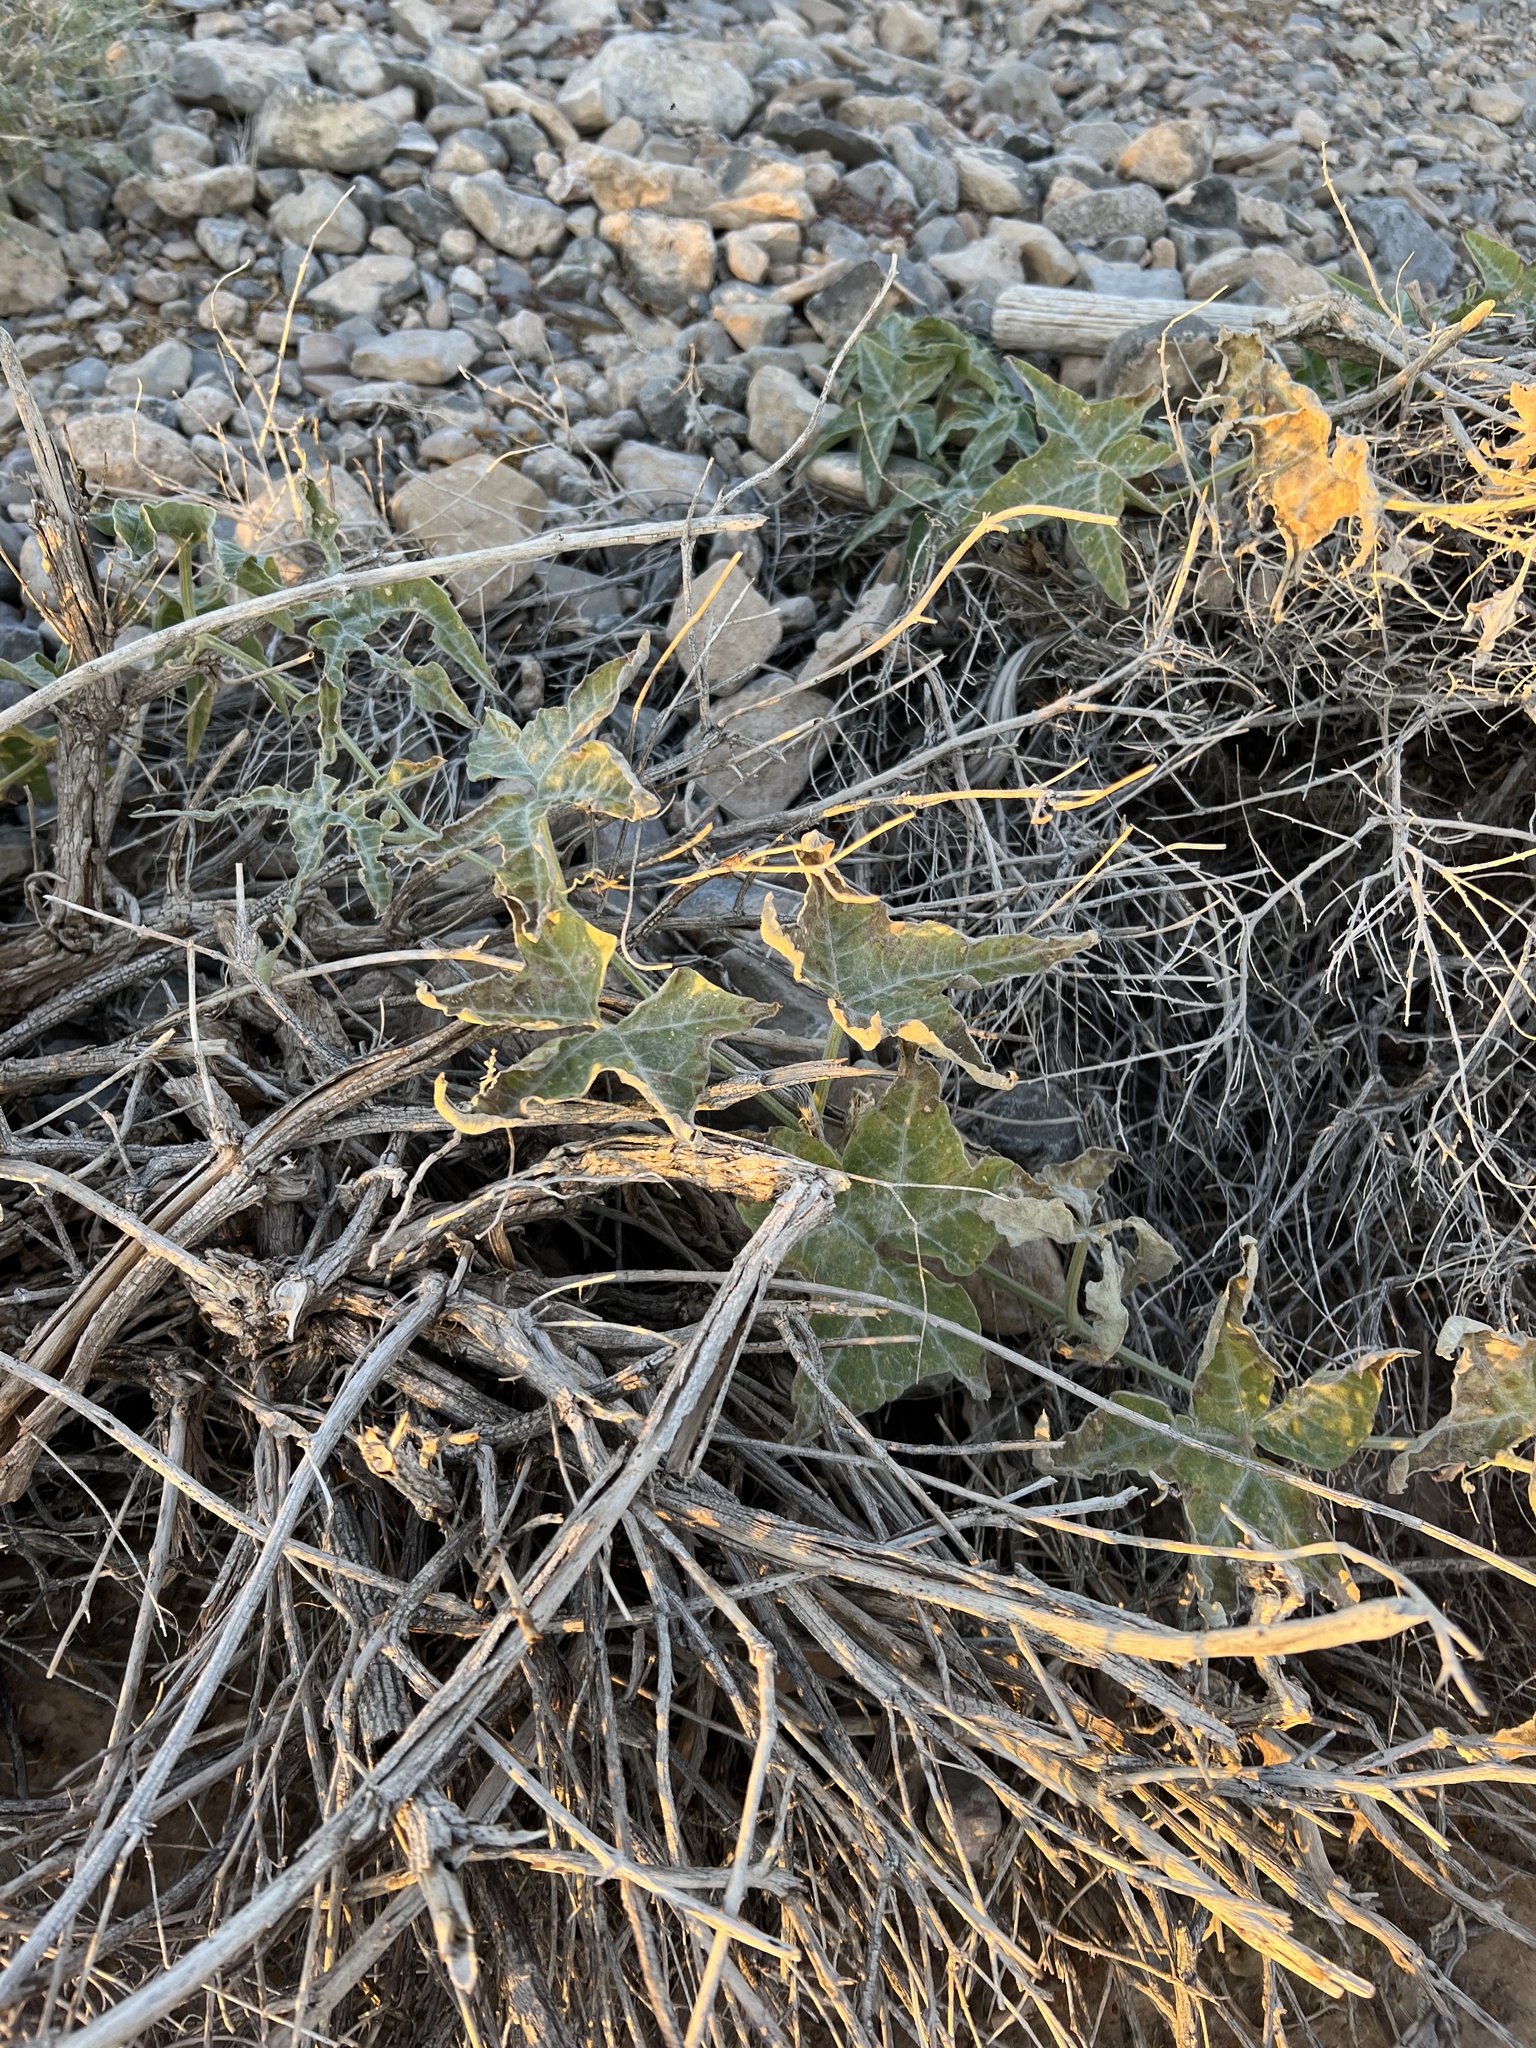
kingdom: Plantae
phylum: Tracheophyta
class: Magnoliopsida
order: Cucurbitales
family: Cucurbitaceae
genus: Cucurbita
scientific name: Cucurbita palmata
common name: Coyote-melon
